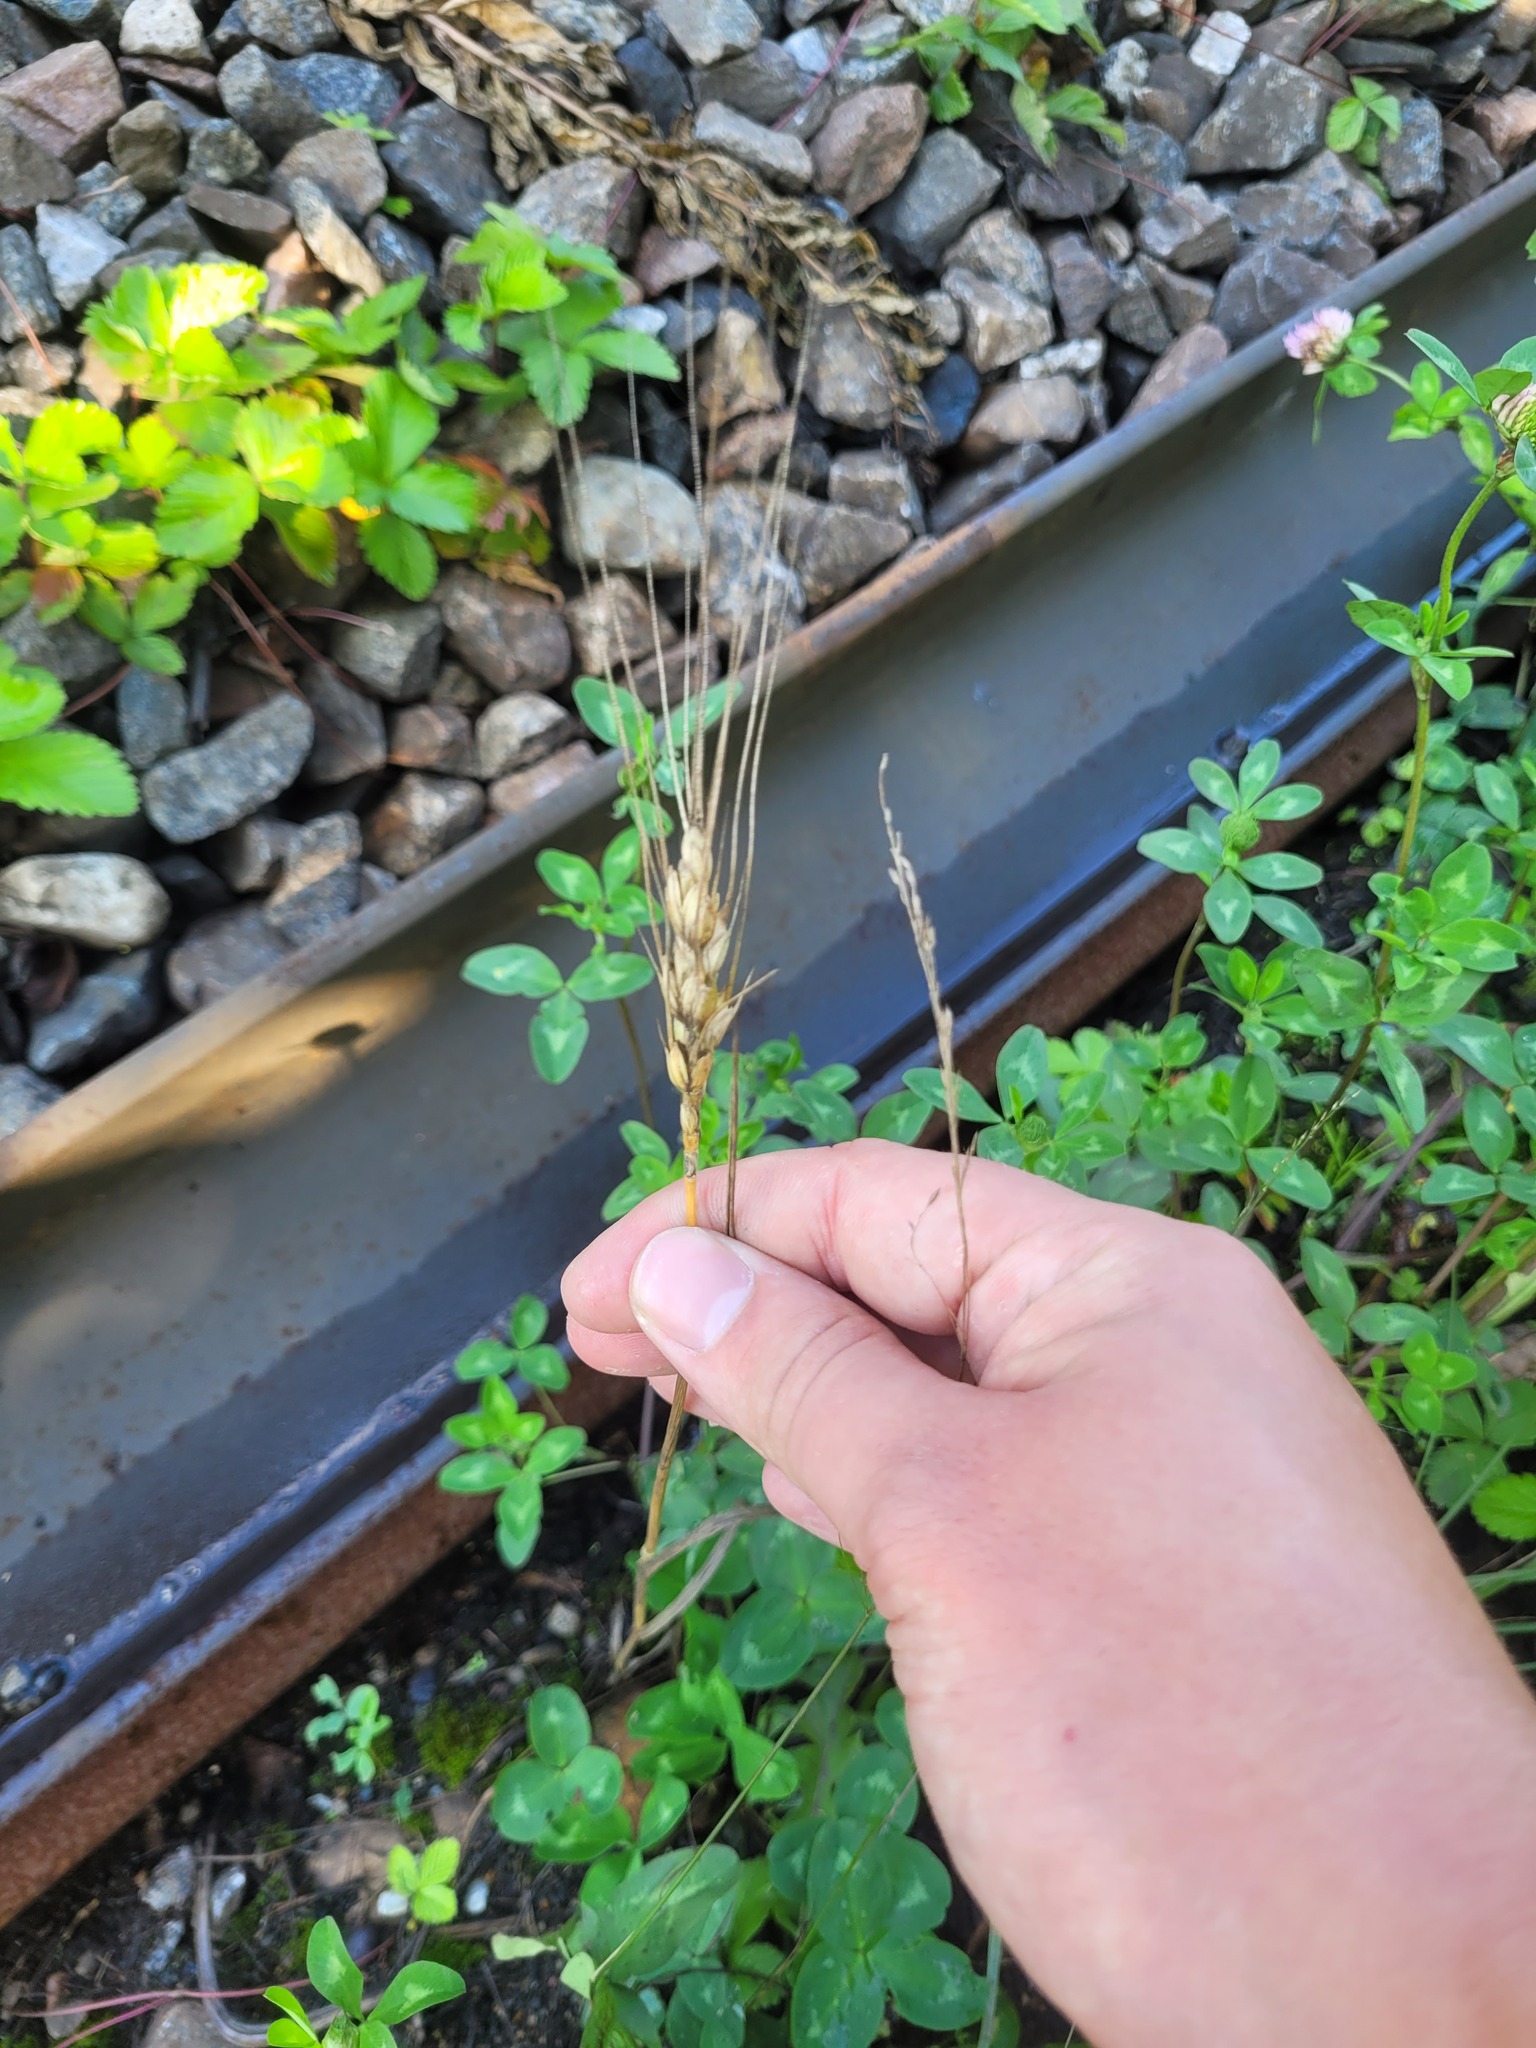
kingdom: Plantae
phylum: Tracheophyta
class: Liliopsida
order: Poales
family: Poaceae
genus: Triticum
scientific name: Triticum aestivum
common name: Common wheat
